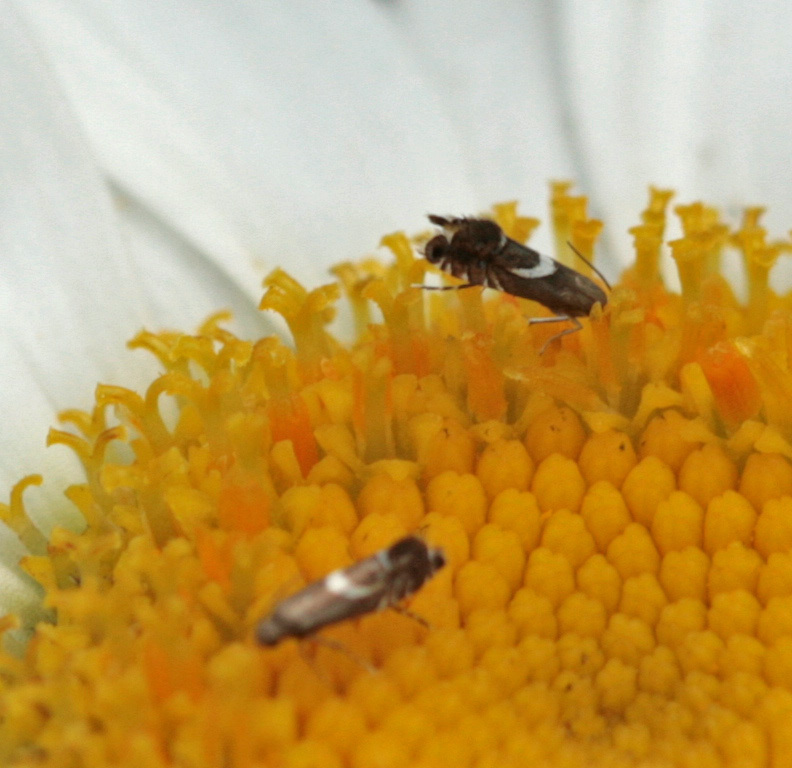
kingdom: Animalia
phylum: Arthropoda
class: Insecta
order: Lepidoptera
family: Glyphipterigidae
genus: Glyphipterix
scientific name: Glyphipterix Diploschizia impigritella
